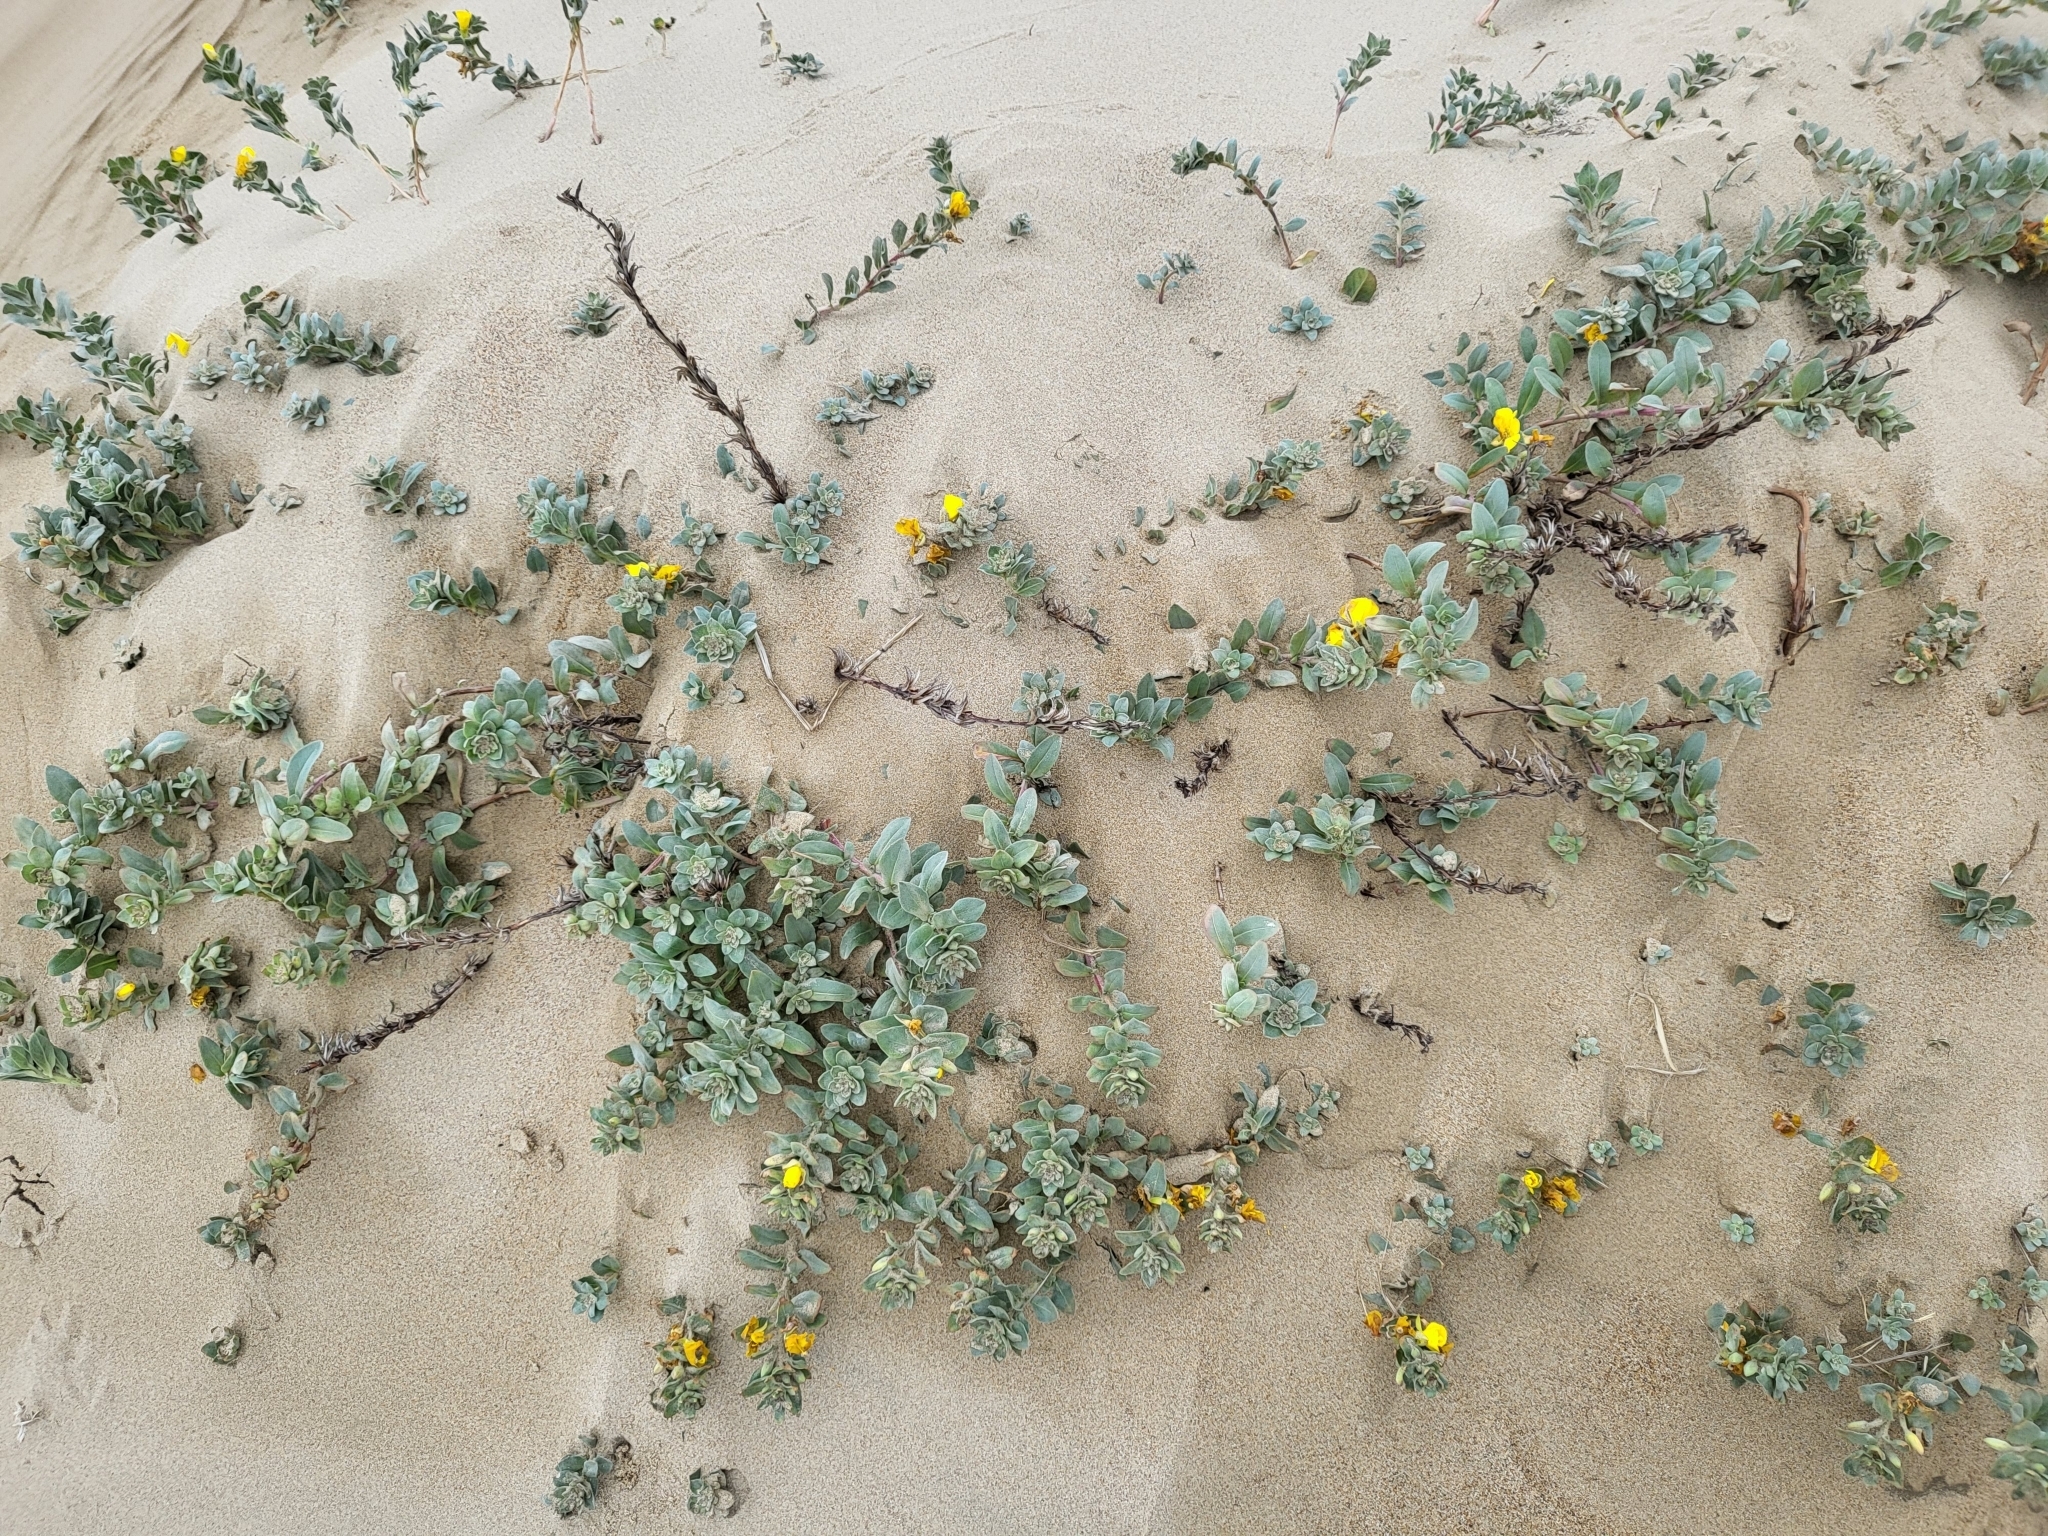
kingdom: Plantae
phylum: Tracheophyta
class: Magnoliopsida
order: Myrtales
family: Onagraceae
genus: Camissoniopsis
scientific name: Camissoniopsis cheiranthifolia
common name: Beach suncup
